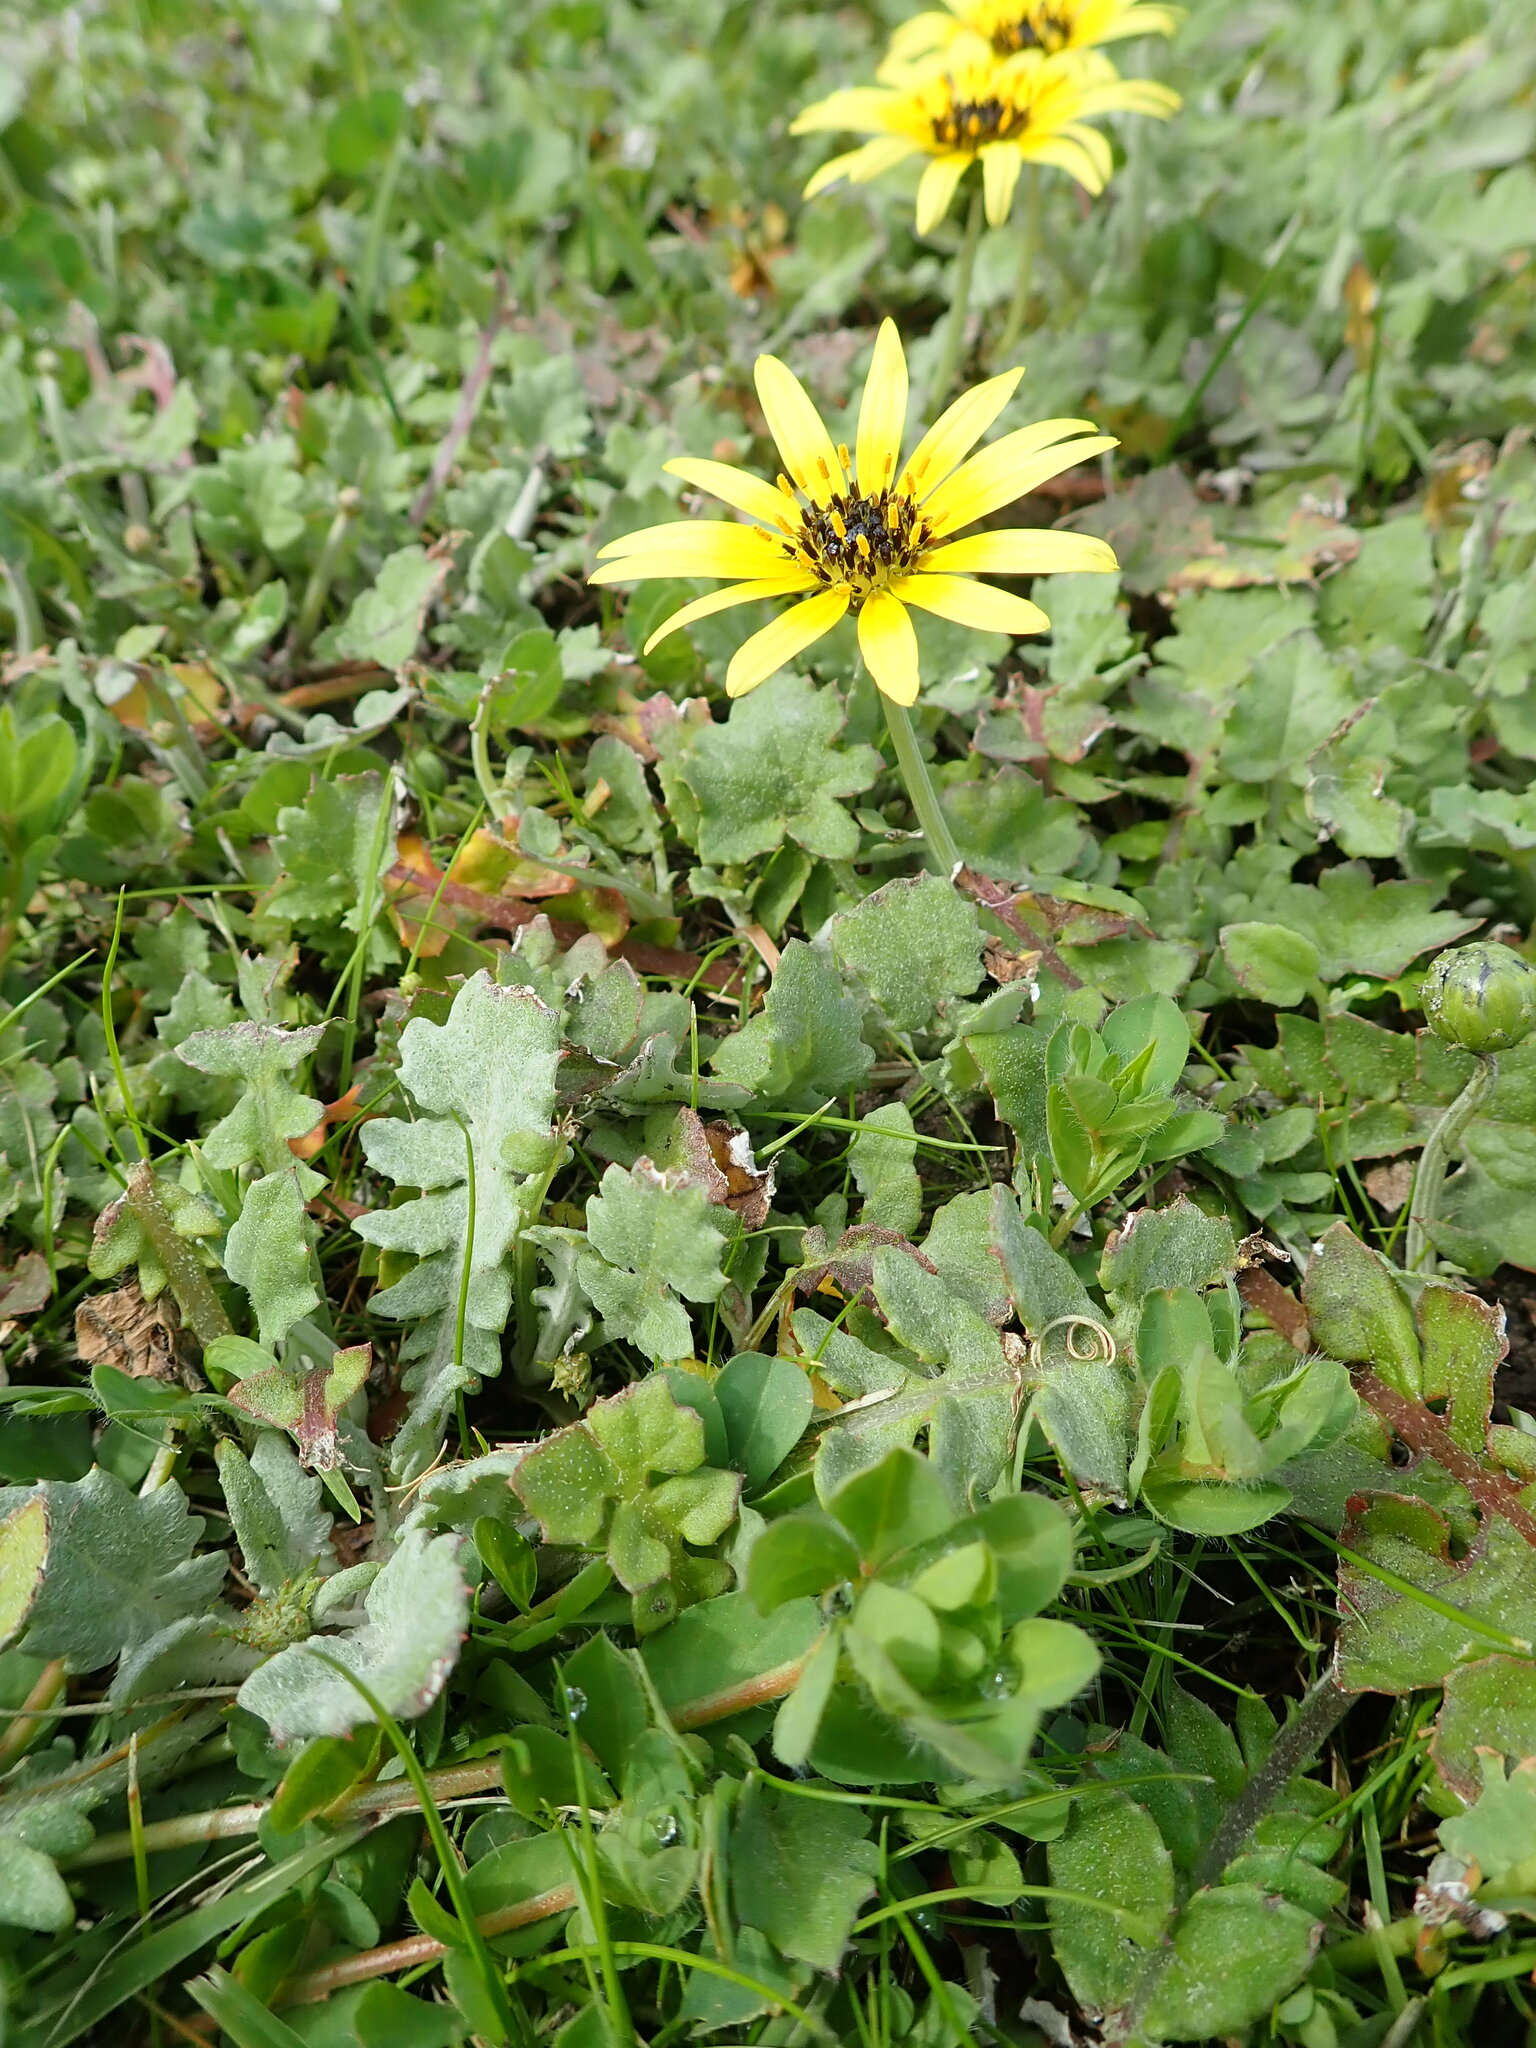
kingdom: Plantae
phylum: Tracheophyta
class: Magnoliopsida
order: Asterales
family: Asteraceae
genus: Arctotheca
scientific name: Arctotheca calendula
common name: Capeweed
